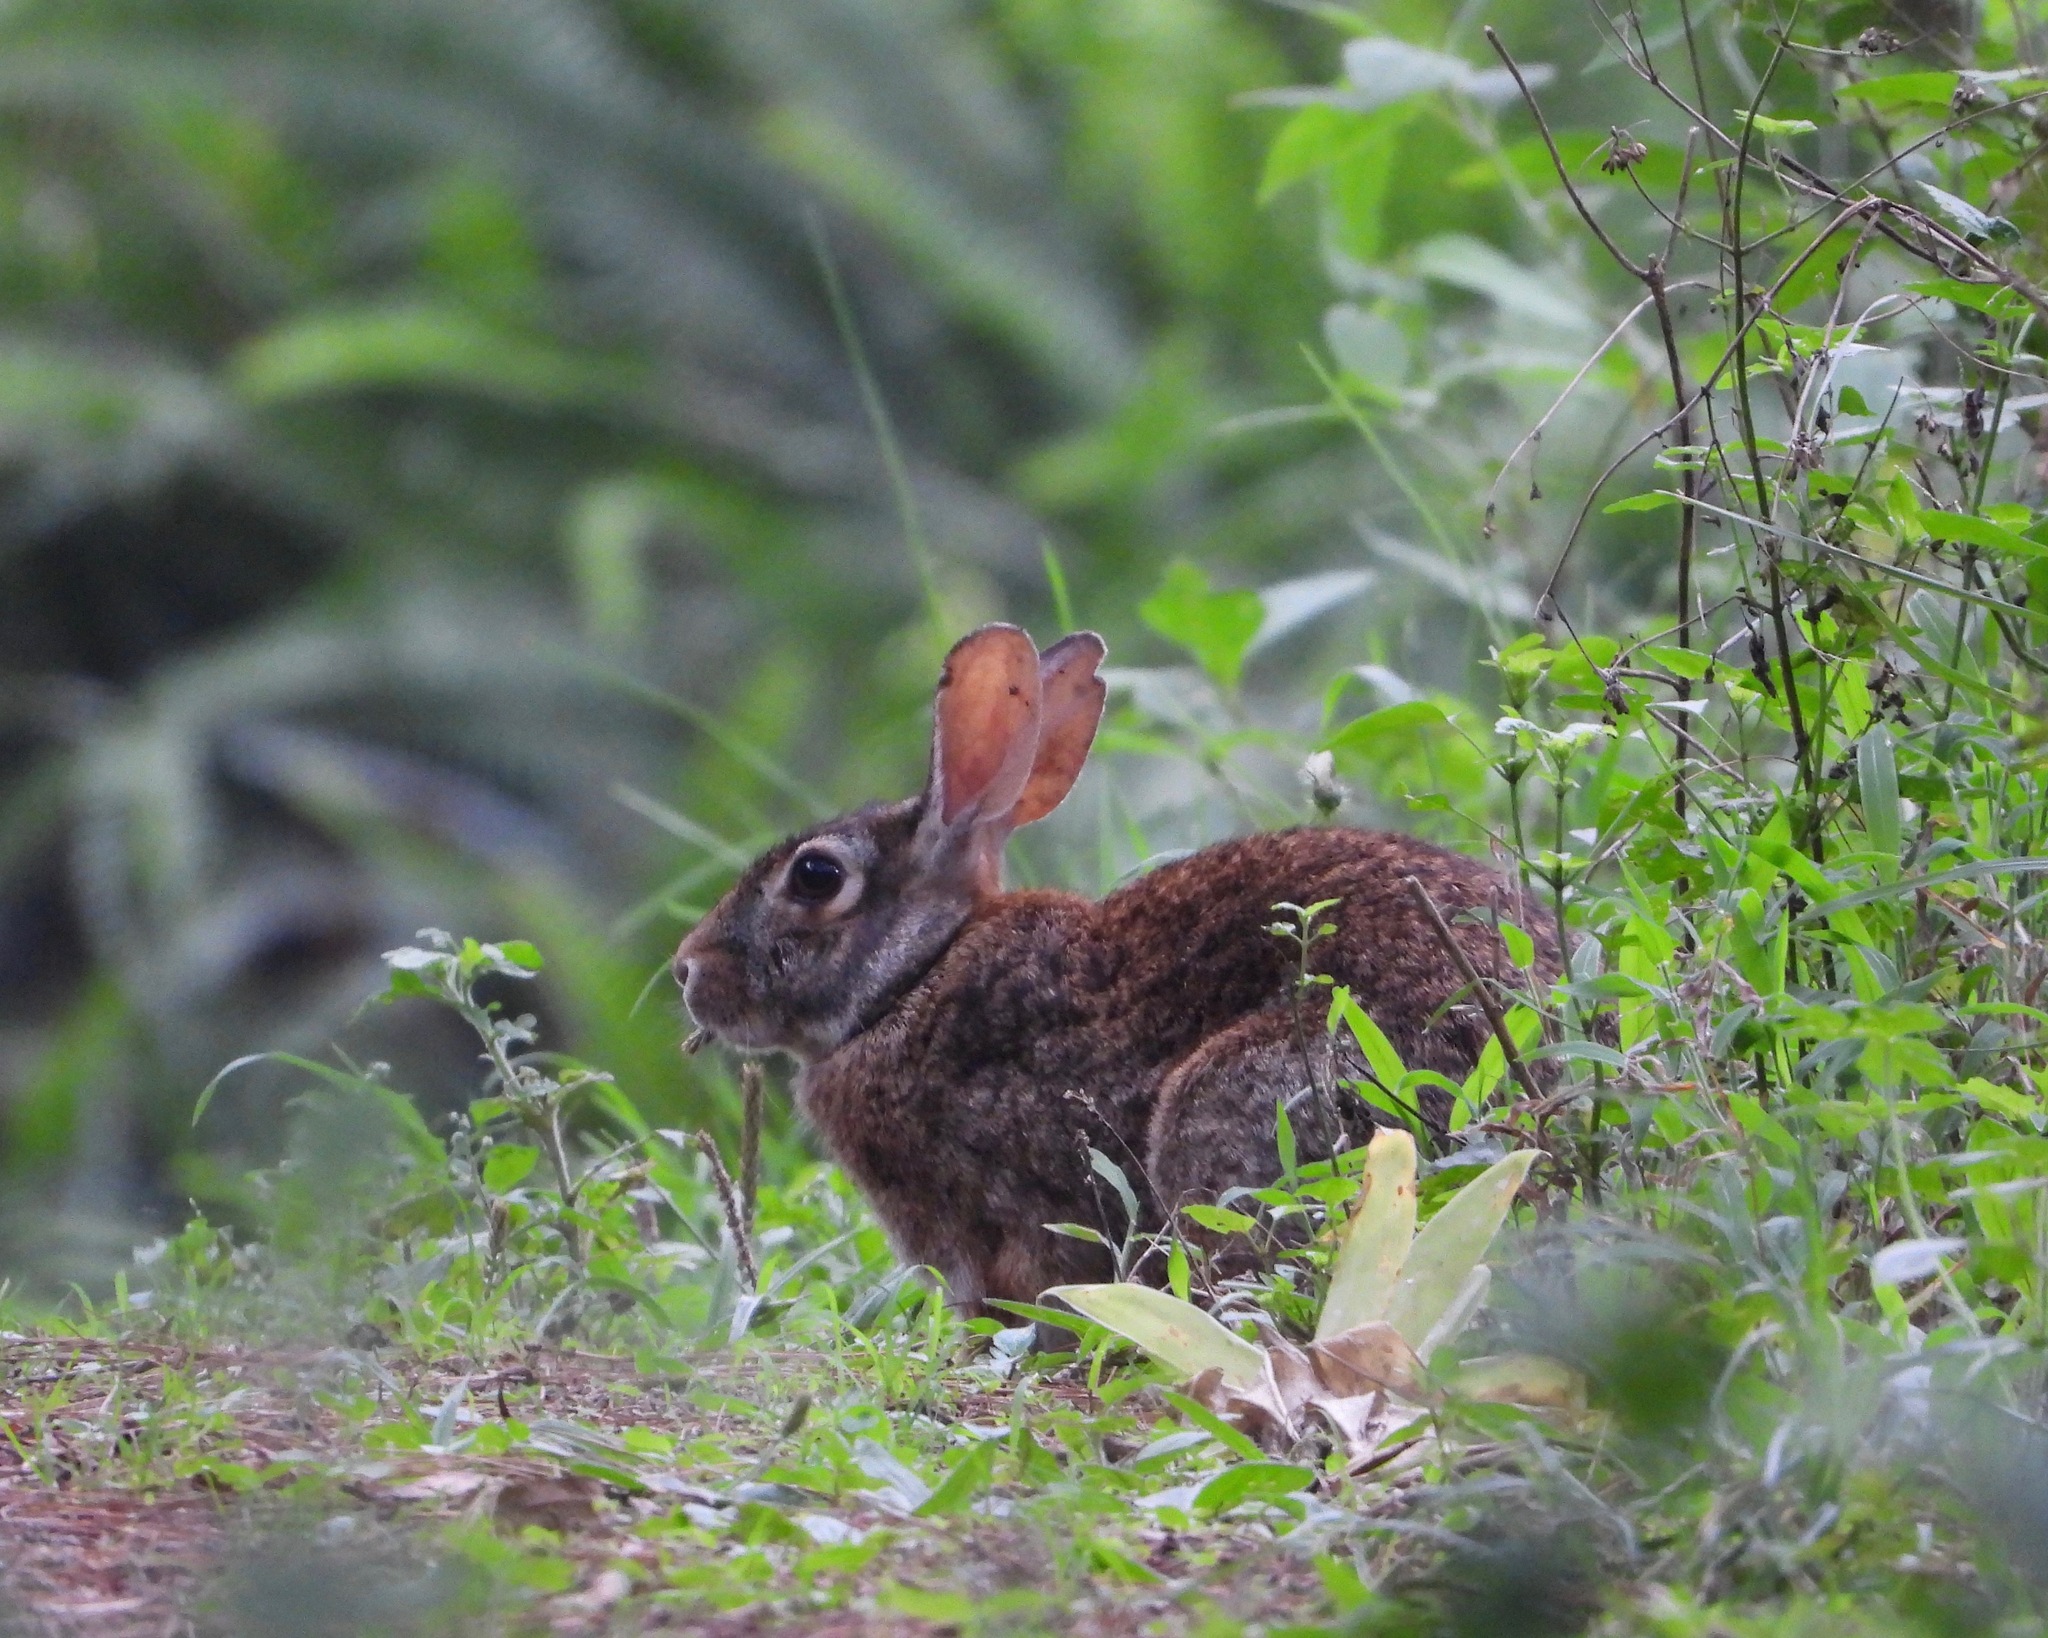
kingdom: Animalia
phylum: Chordata
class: Mammalia
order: Lagomorpha
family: Leporidae
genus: Sylvilagus
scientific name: Sylvilagus floridanus
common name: Eastern cottontail
